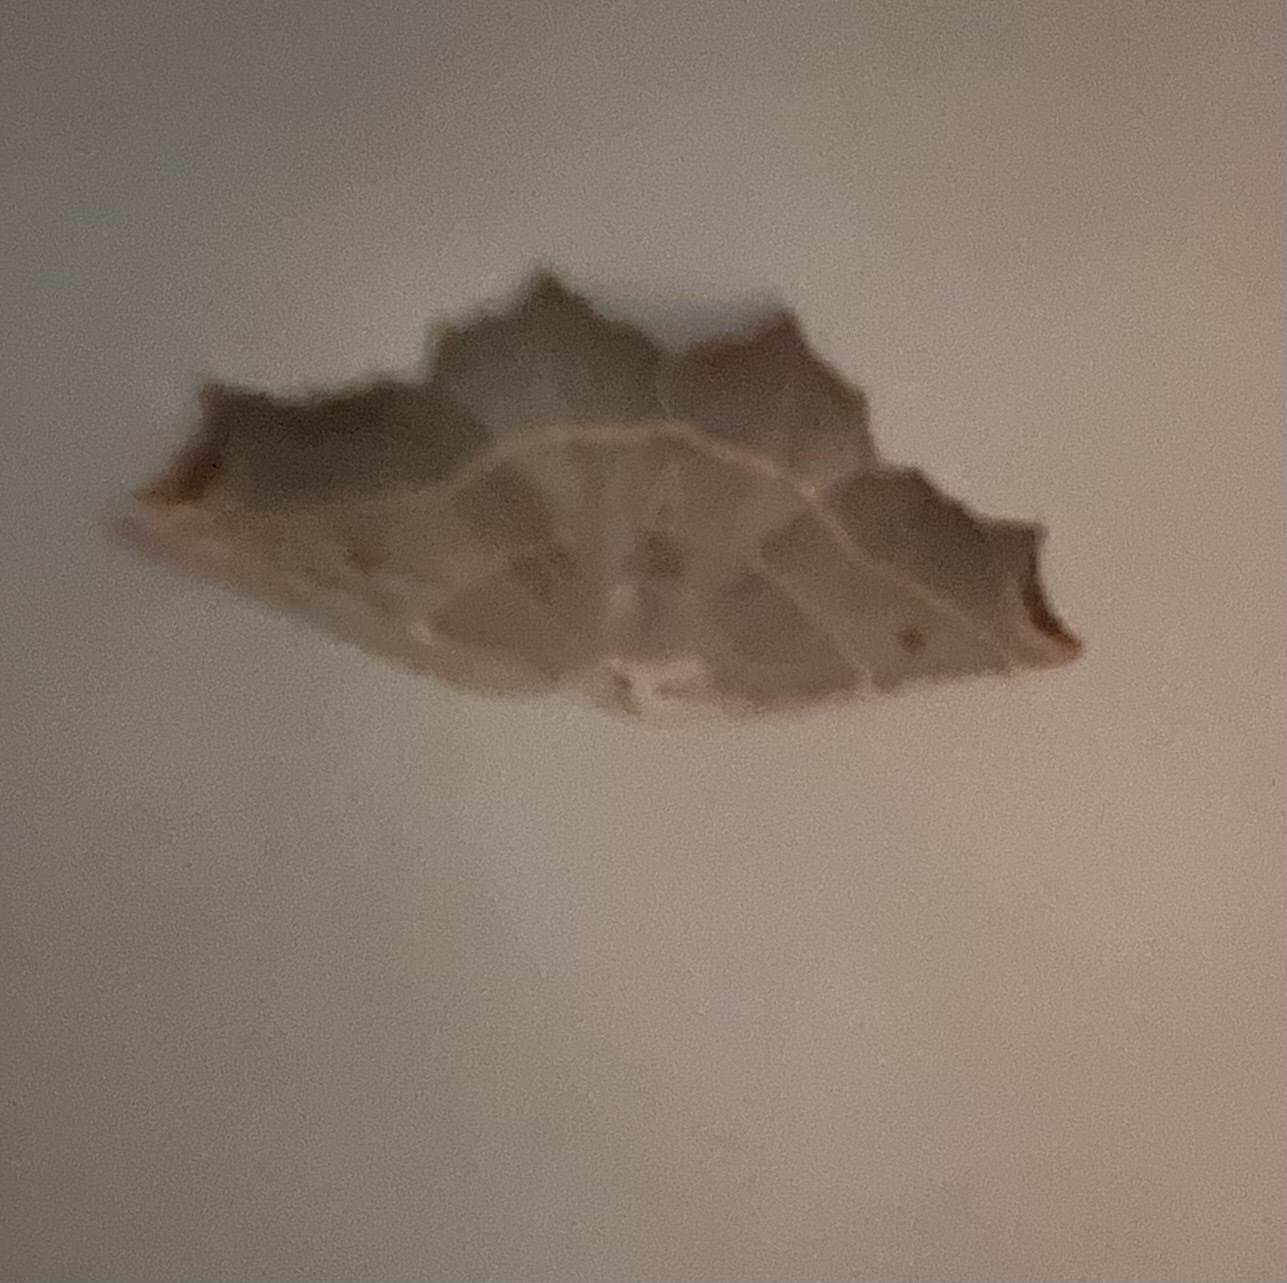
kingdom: Animalia
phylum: Arthropoda
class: Insecta
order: Lepidoptera
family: Geometridae
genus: Metanema
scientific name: Metanema inatomaria
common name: Pale metanema
